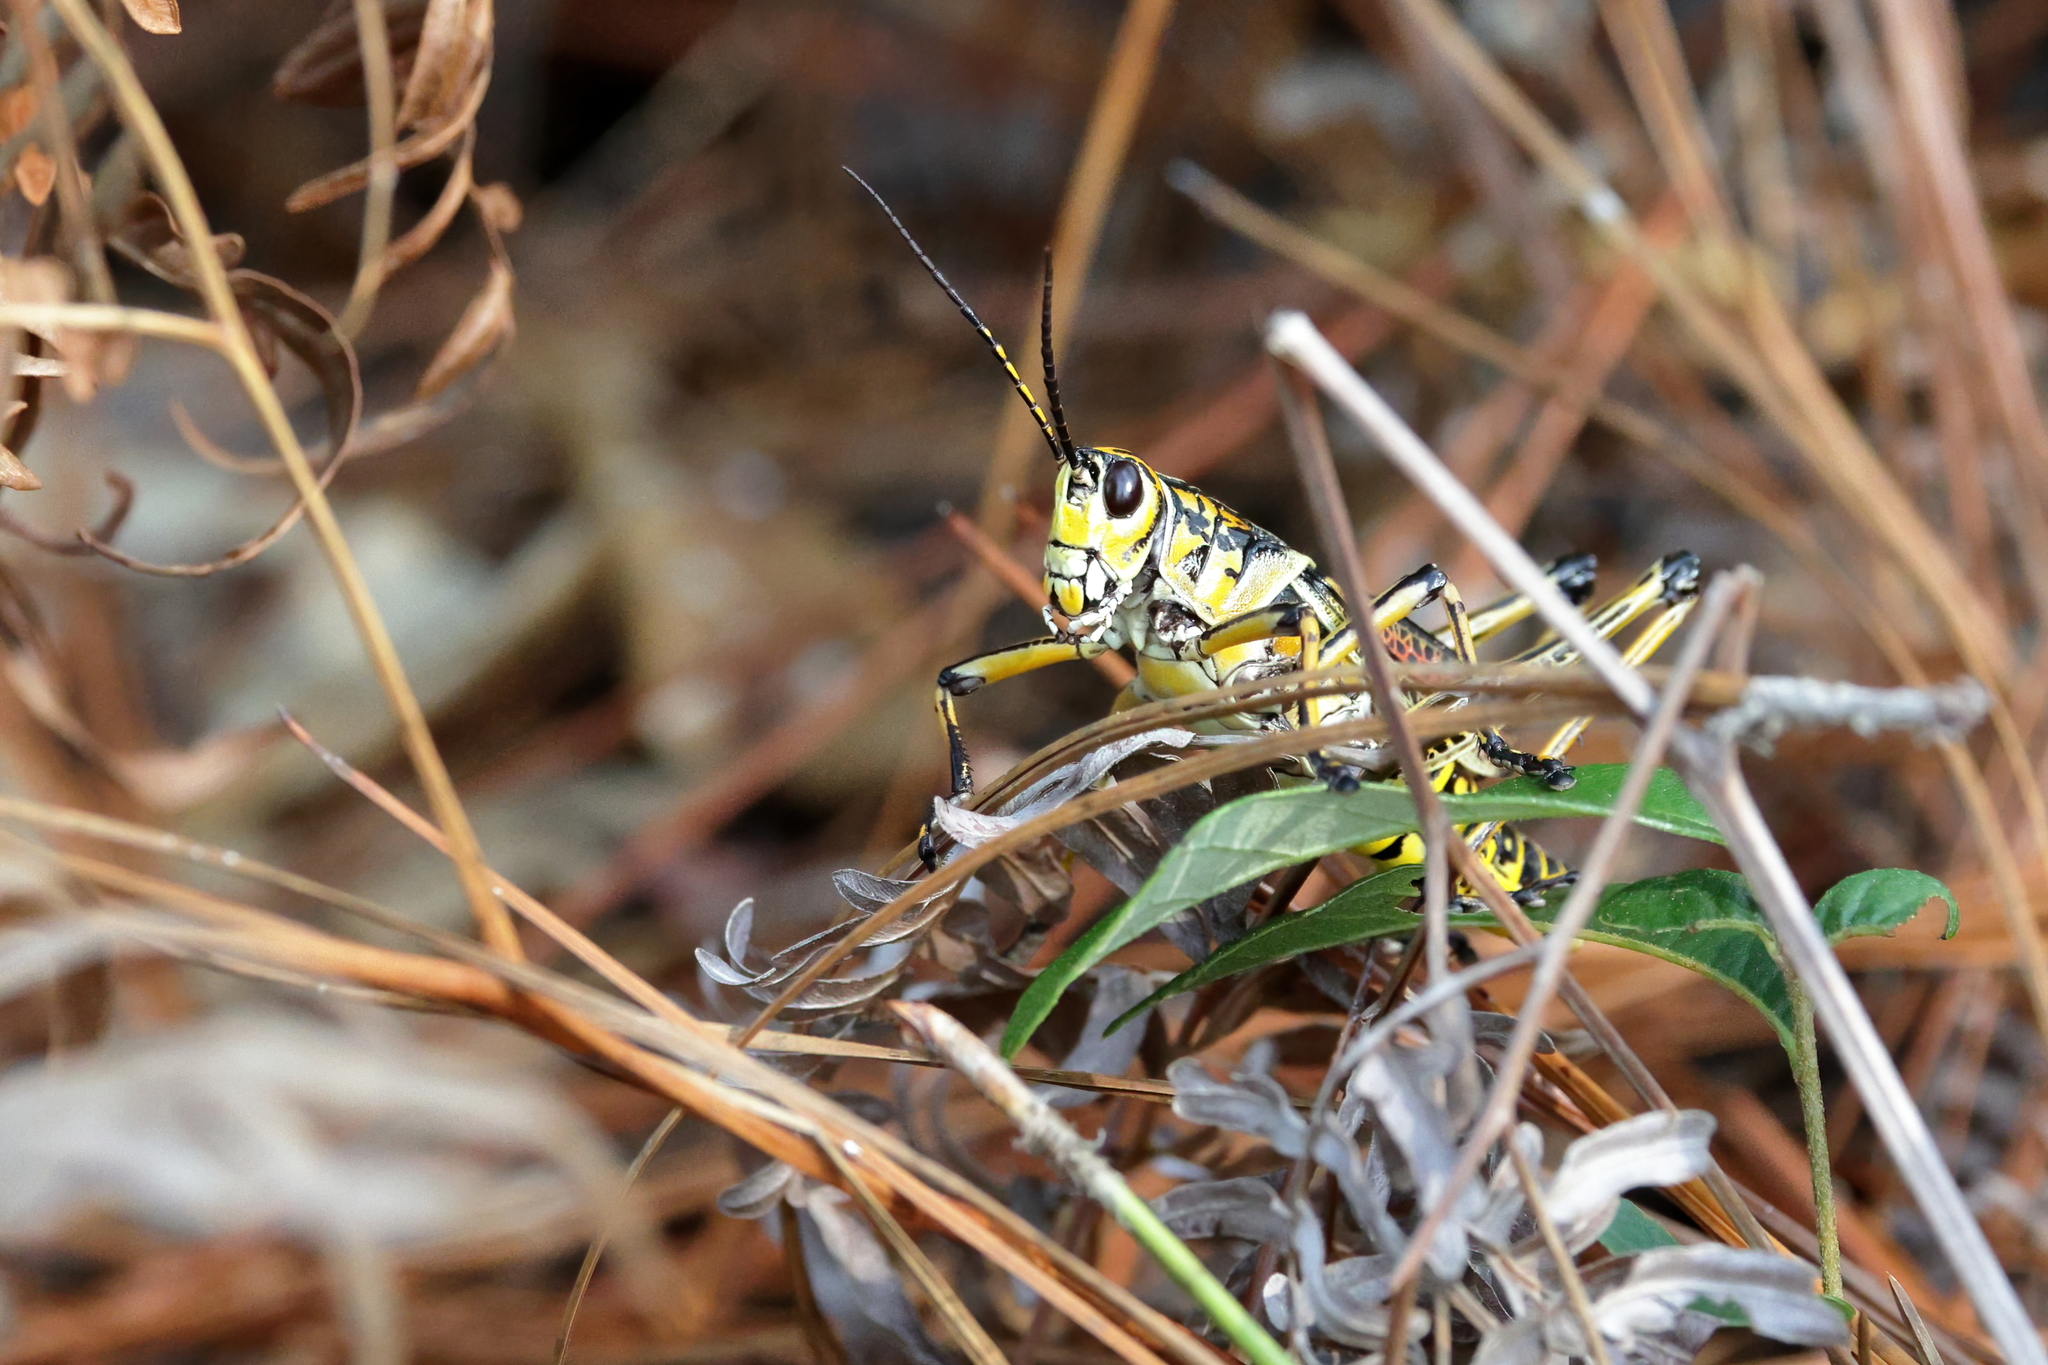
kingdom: Animalia
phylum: Arthropoda
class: Insecta
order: Orthoptera
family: Romaleidae
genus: Romalea
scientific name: Romalea microptera
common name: Eastern lubber grasshopper
